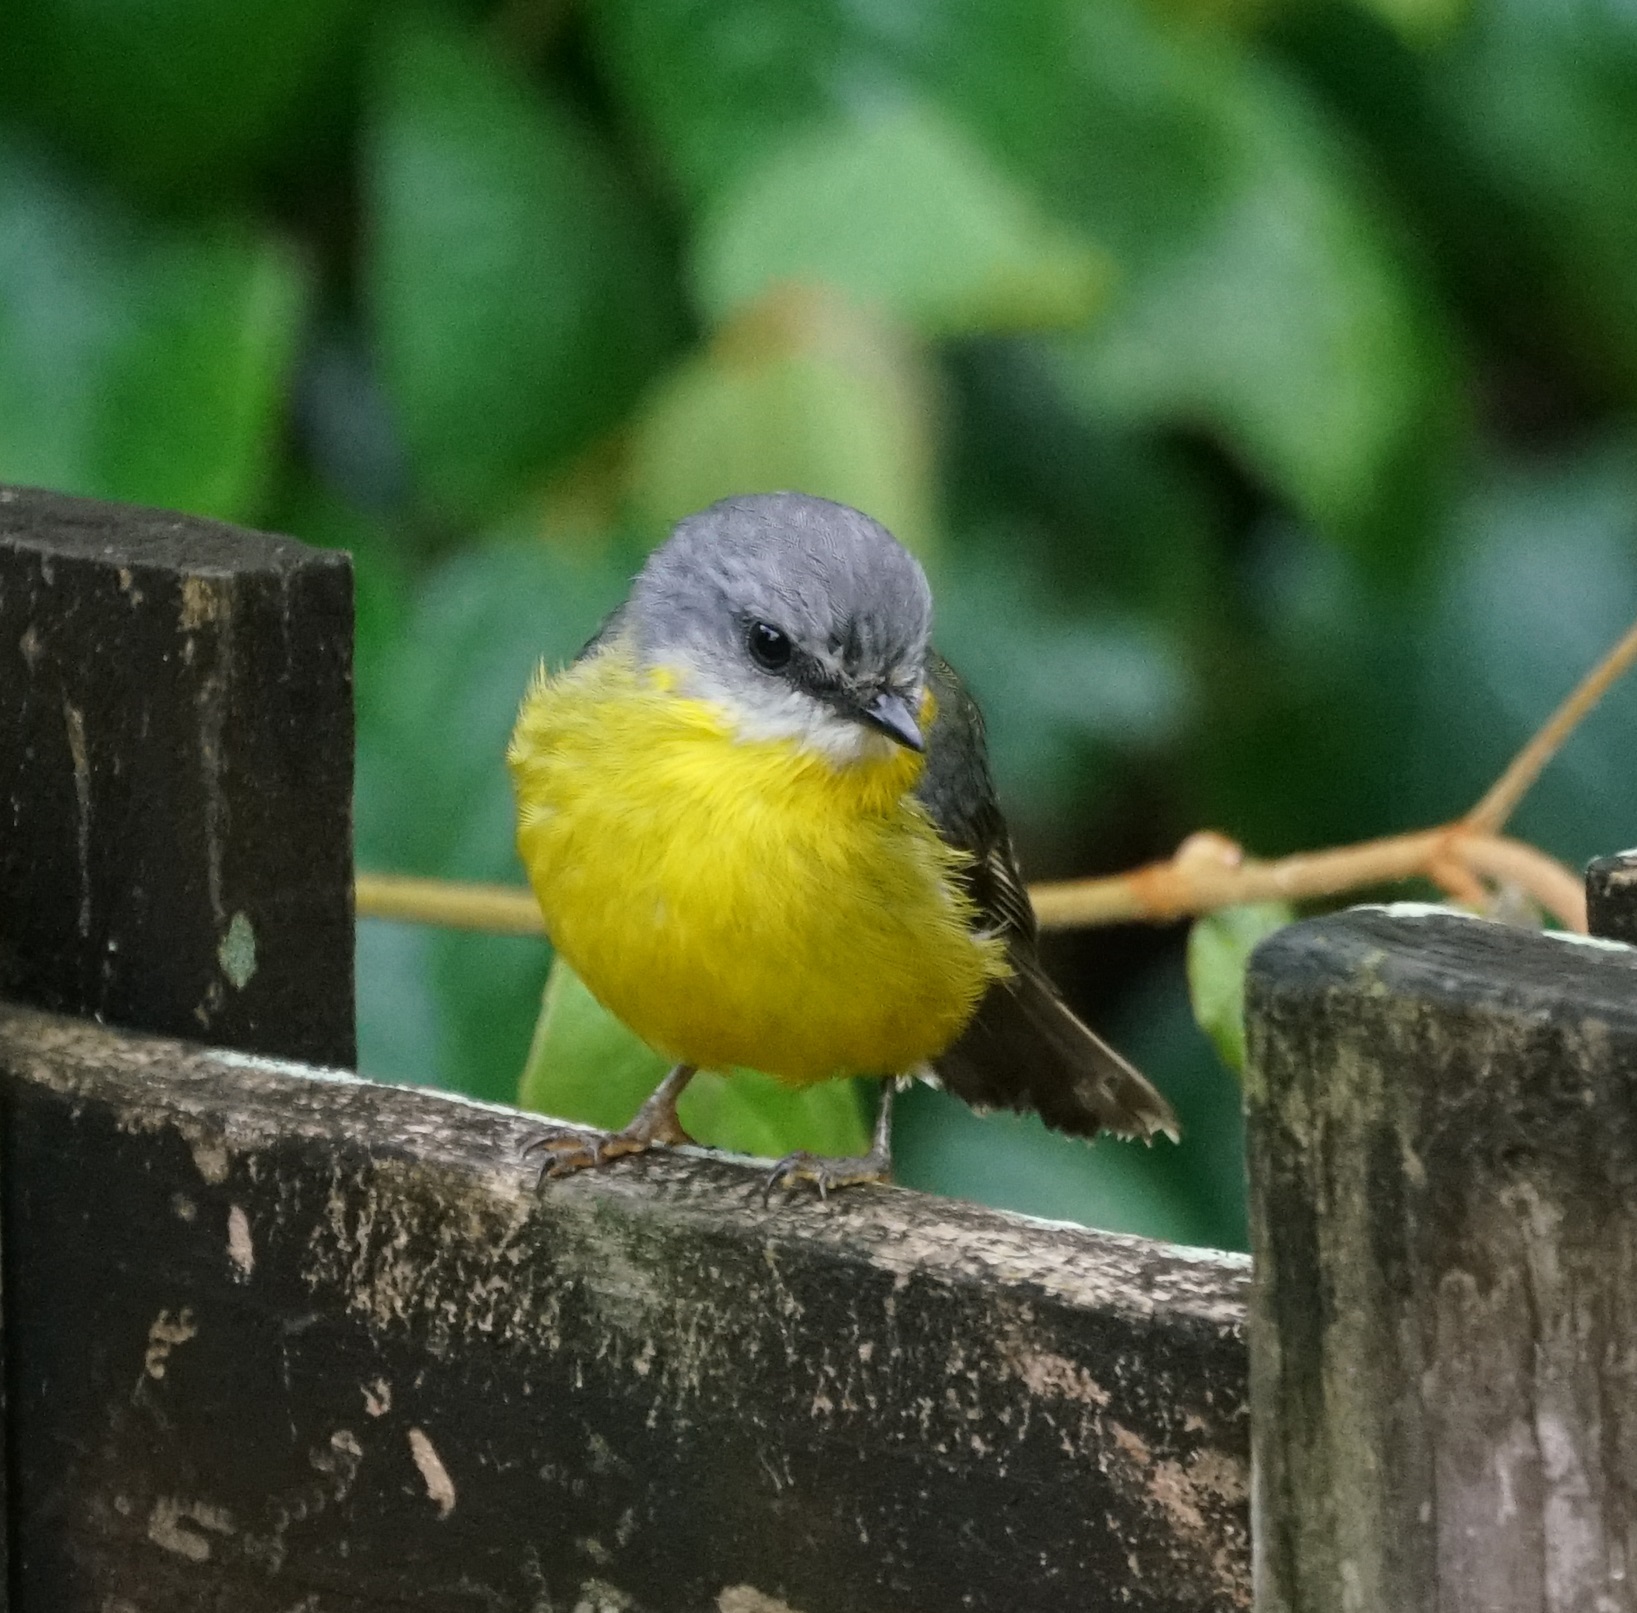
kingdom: Animalia
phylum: Chordata
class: Aves
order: Passeriformes
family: Petroicidae
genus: Eopsaltria
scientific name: Eopsaltria australis
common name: Eastern yellow robin
